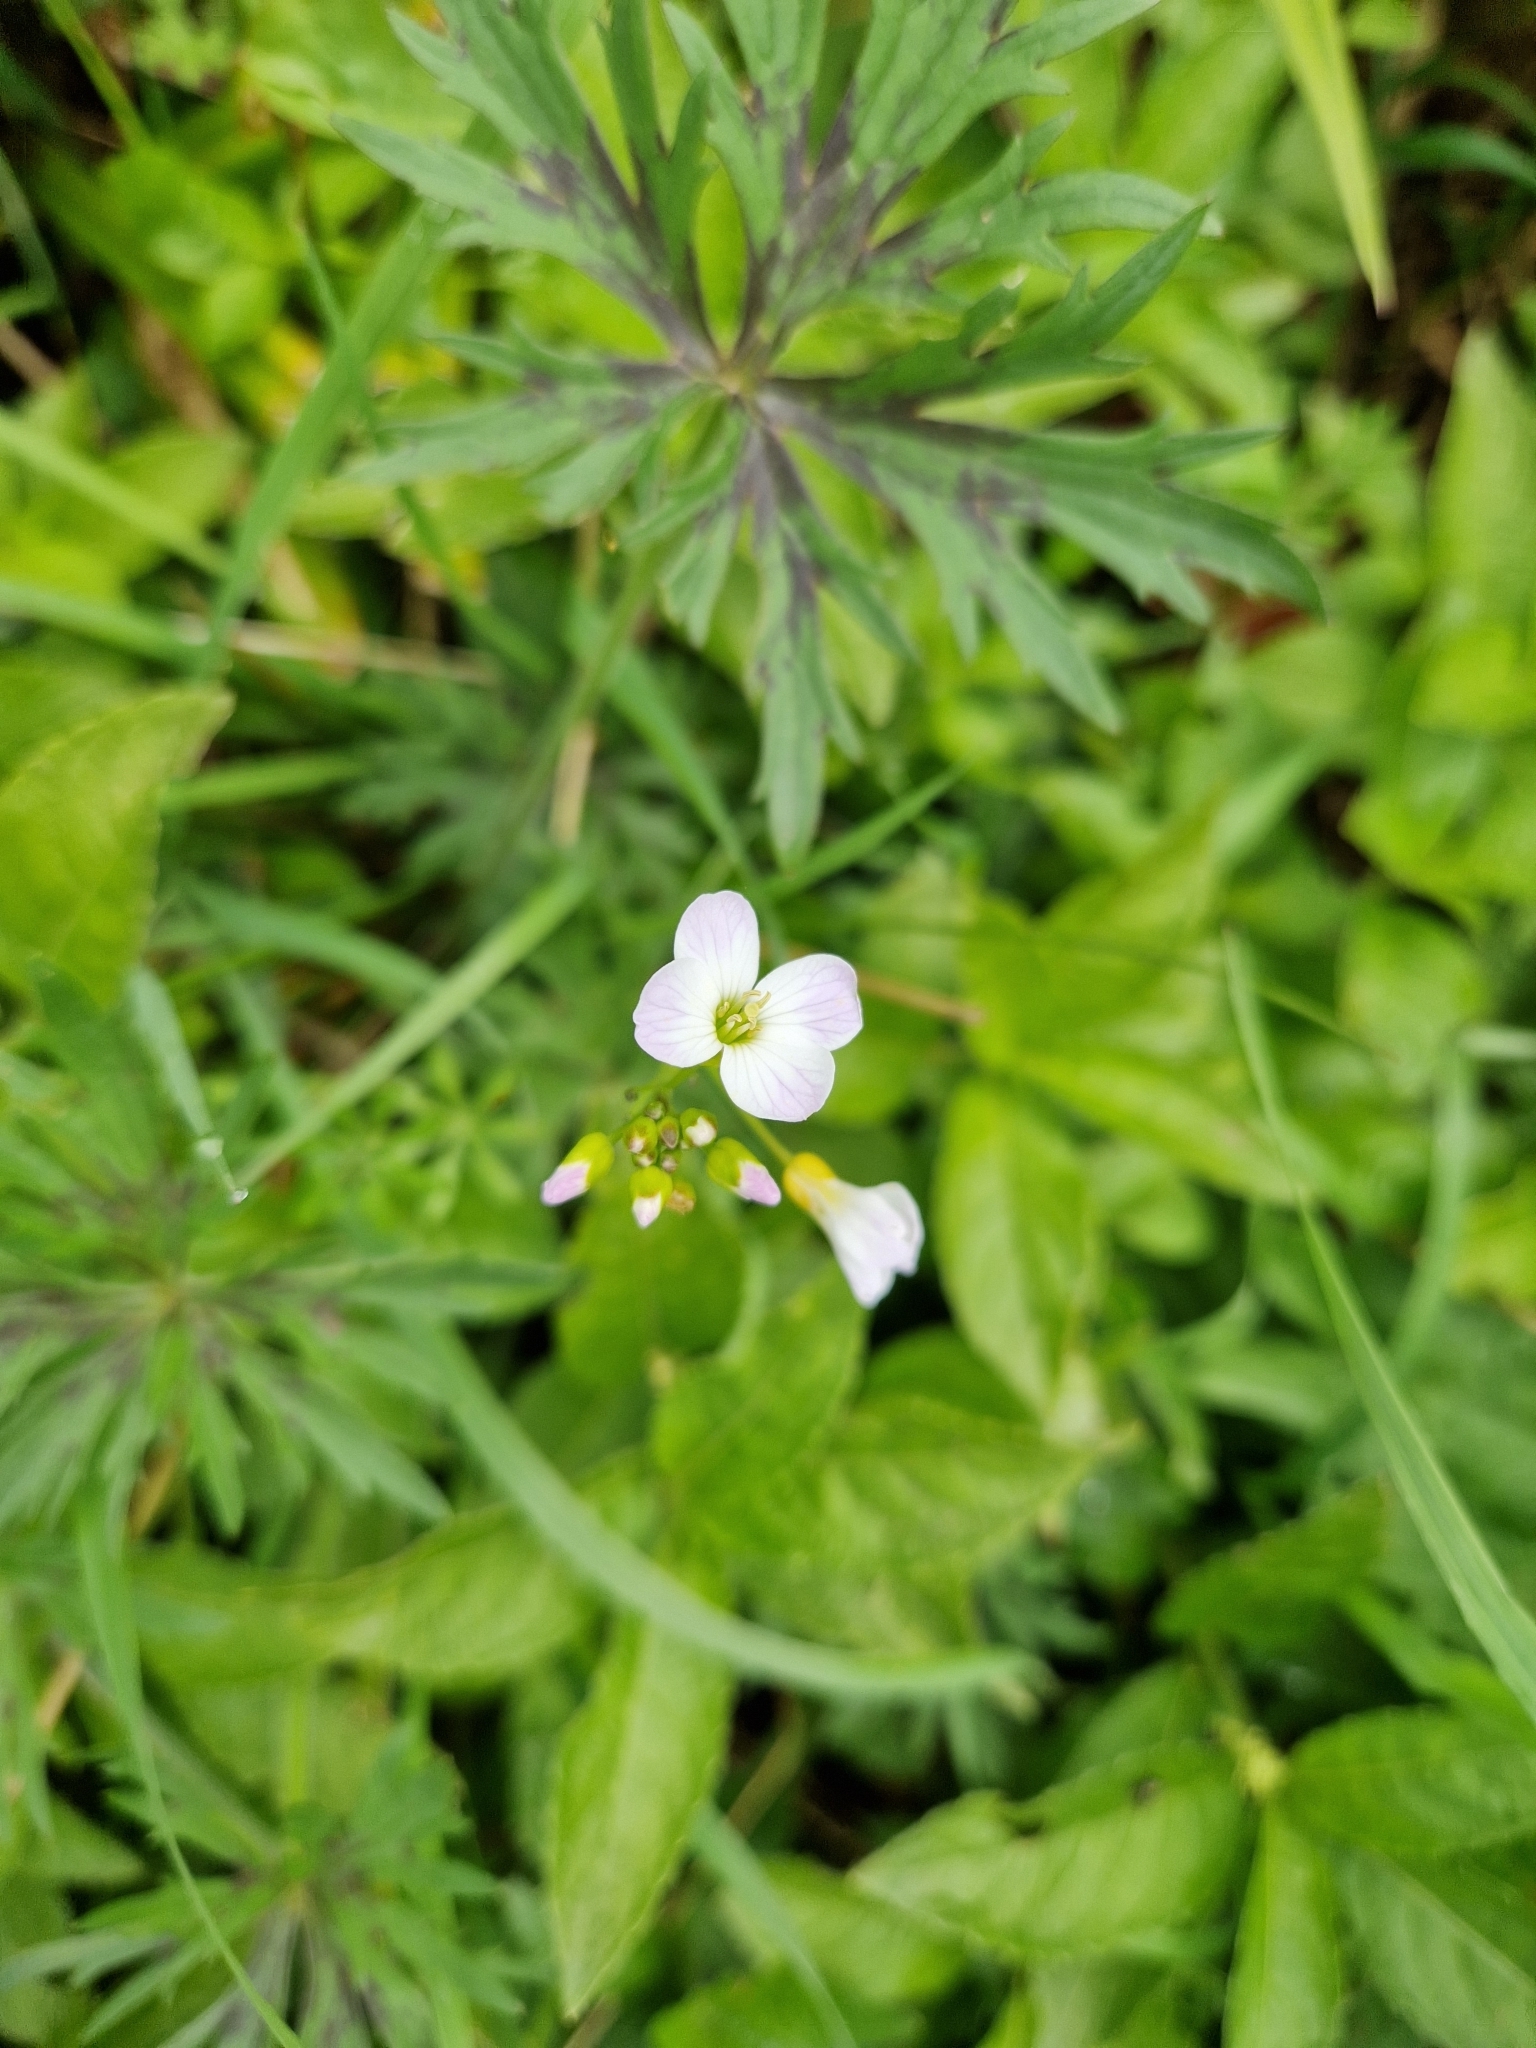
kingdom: Plantae
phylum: Tracheophyta
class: Magnoliopsida
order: Brassicales
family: Brassicaceae
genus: Cardamine
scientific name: Cardamine pratensis
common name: Cuckoo flower
